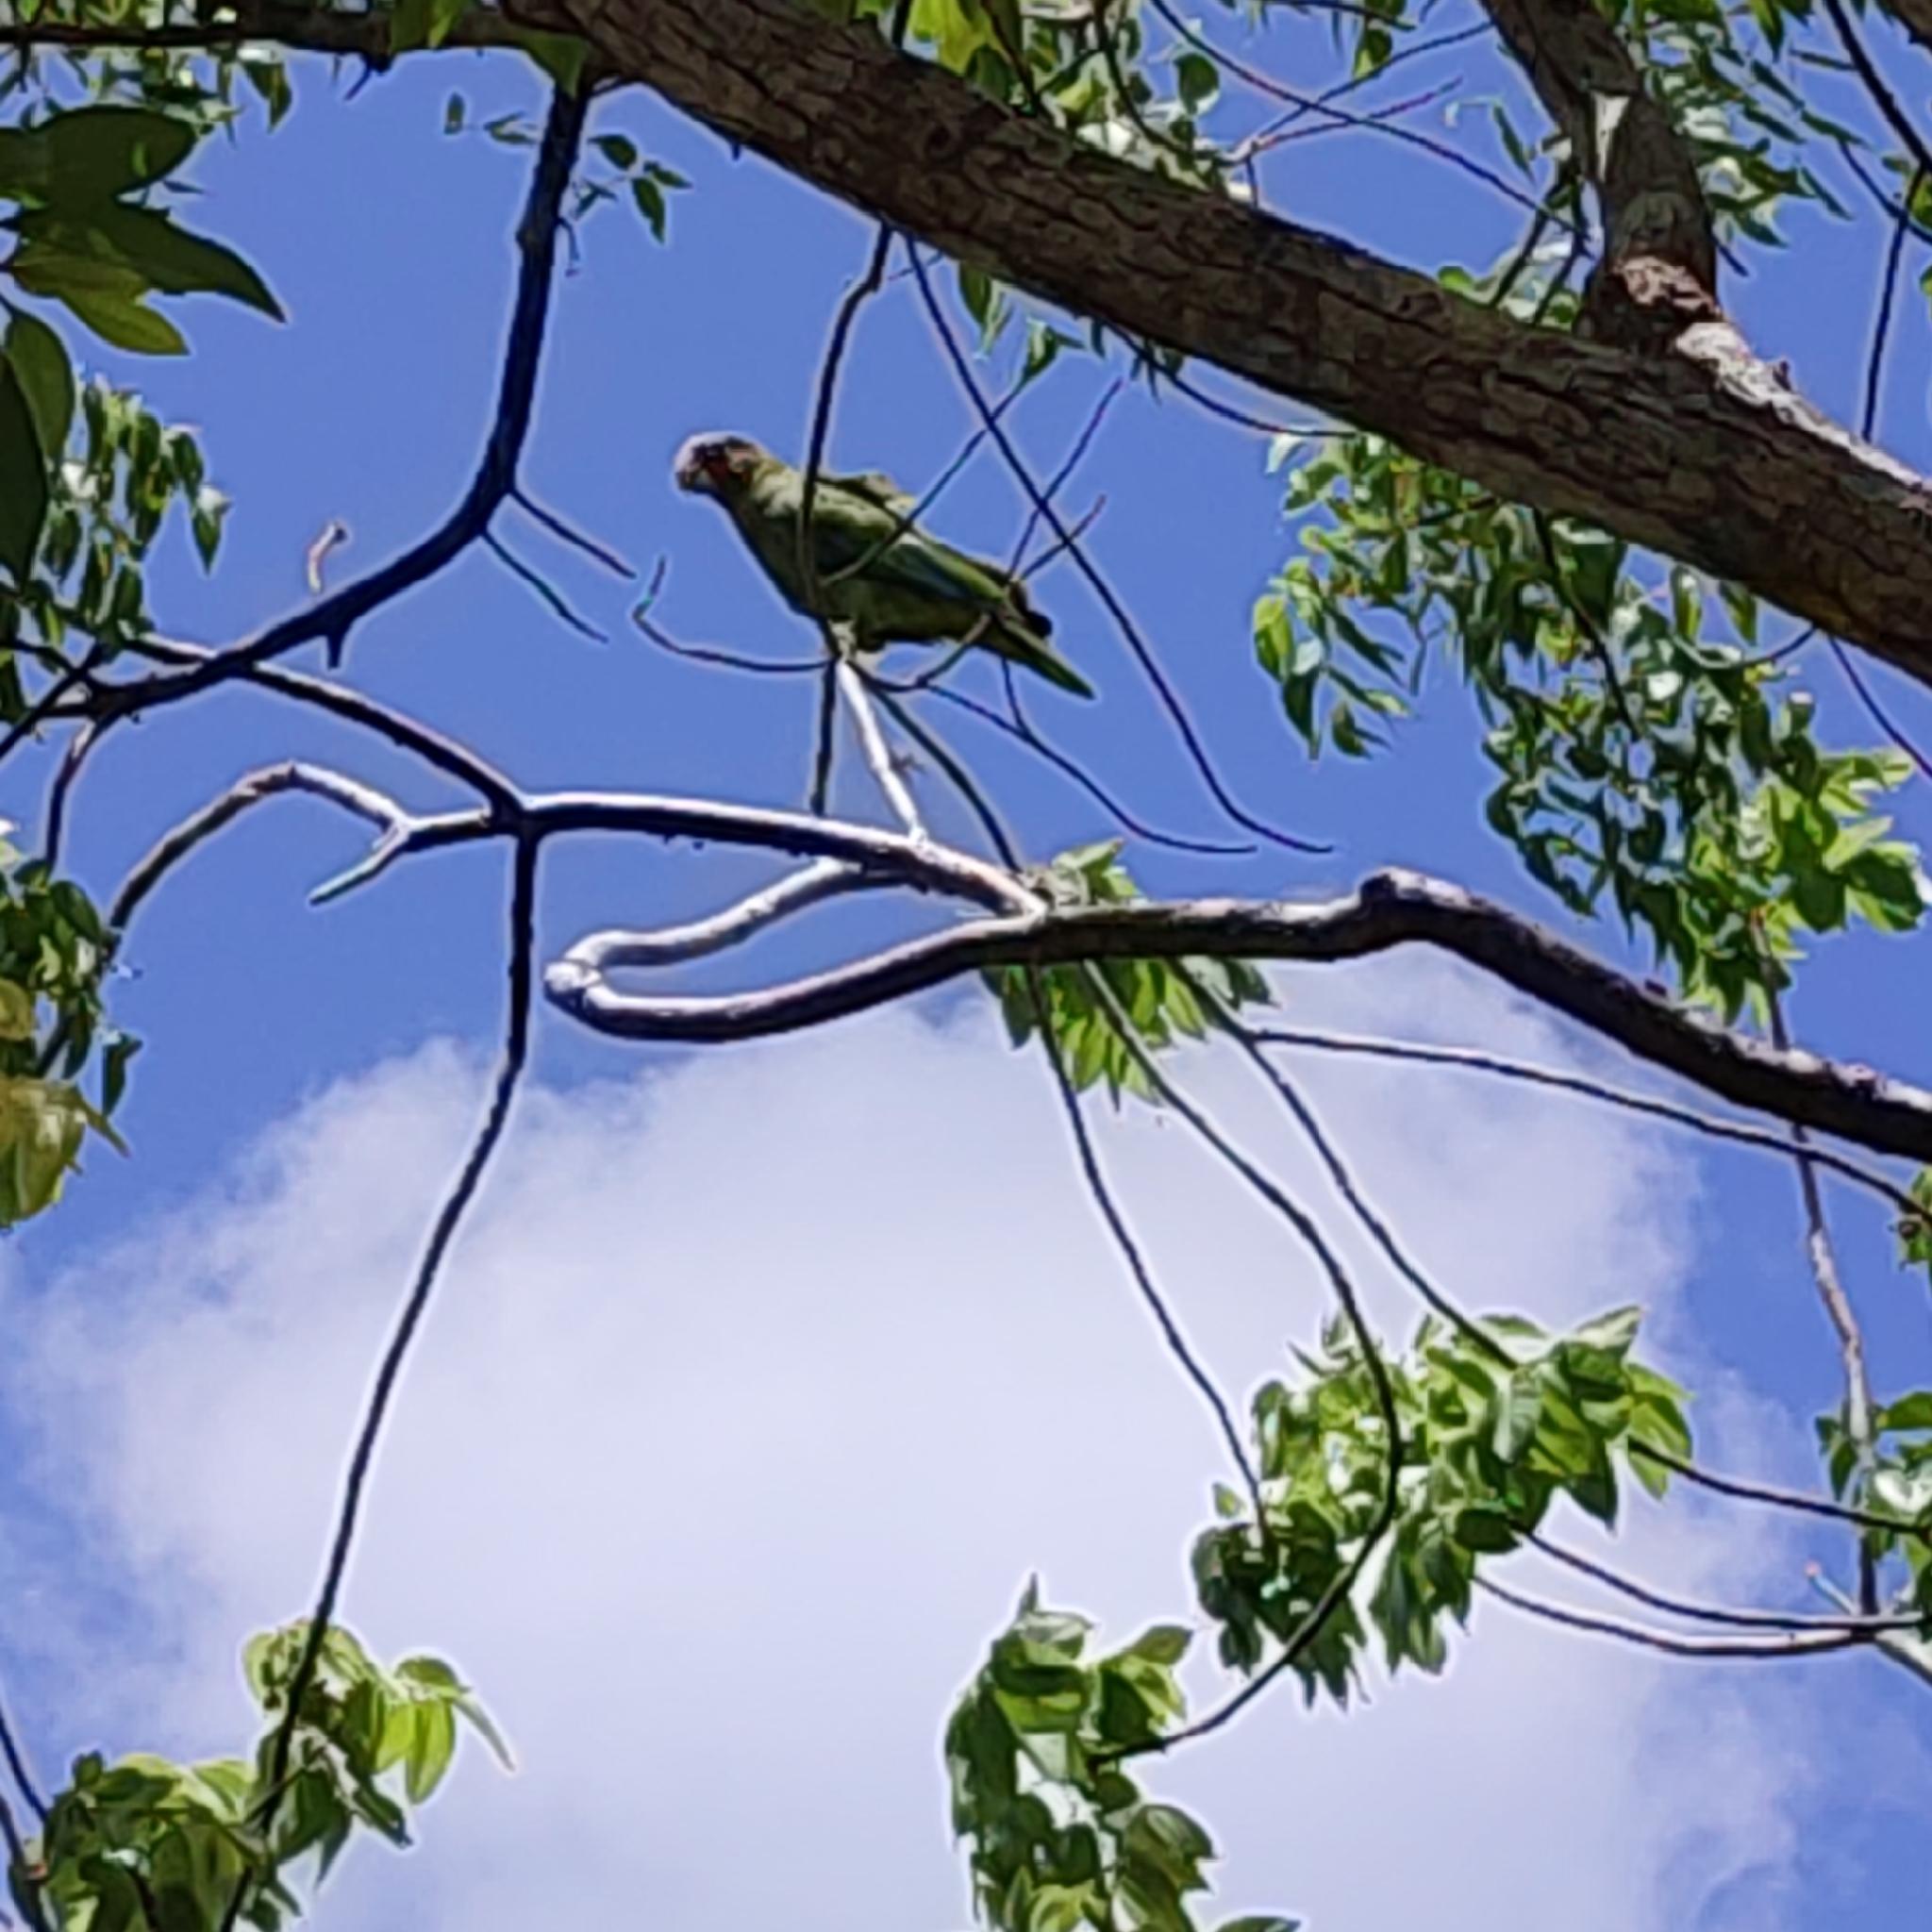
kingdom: Animalia
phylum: Chordata
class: Aves
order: Psittaciformes
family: Psittacidae
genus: Amazona
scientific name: Amazona leucocephala
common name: Cuban amazon
